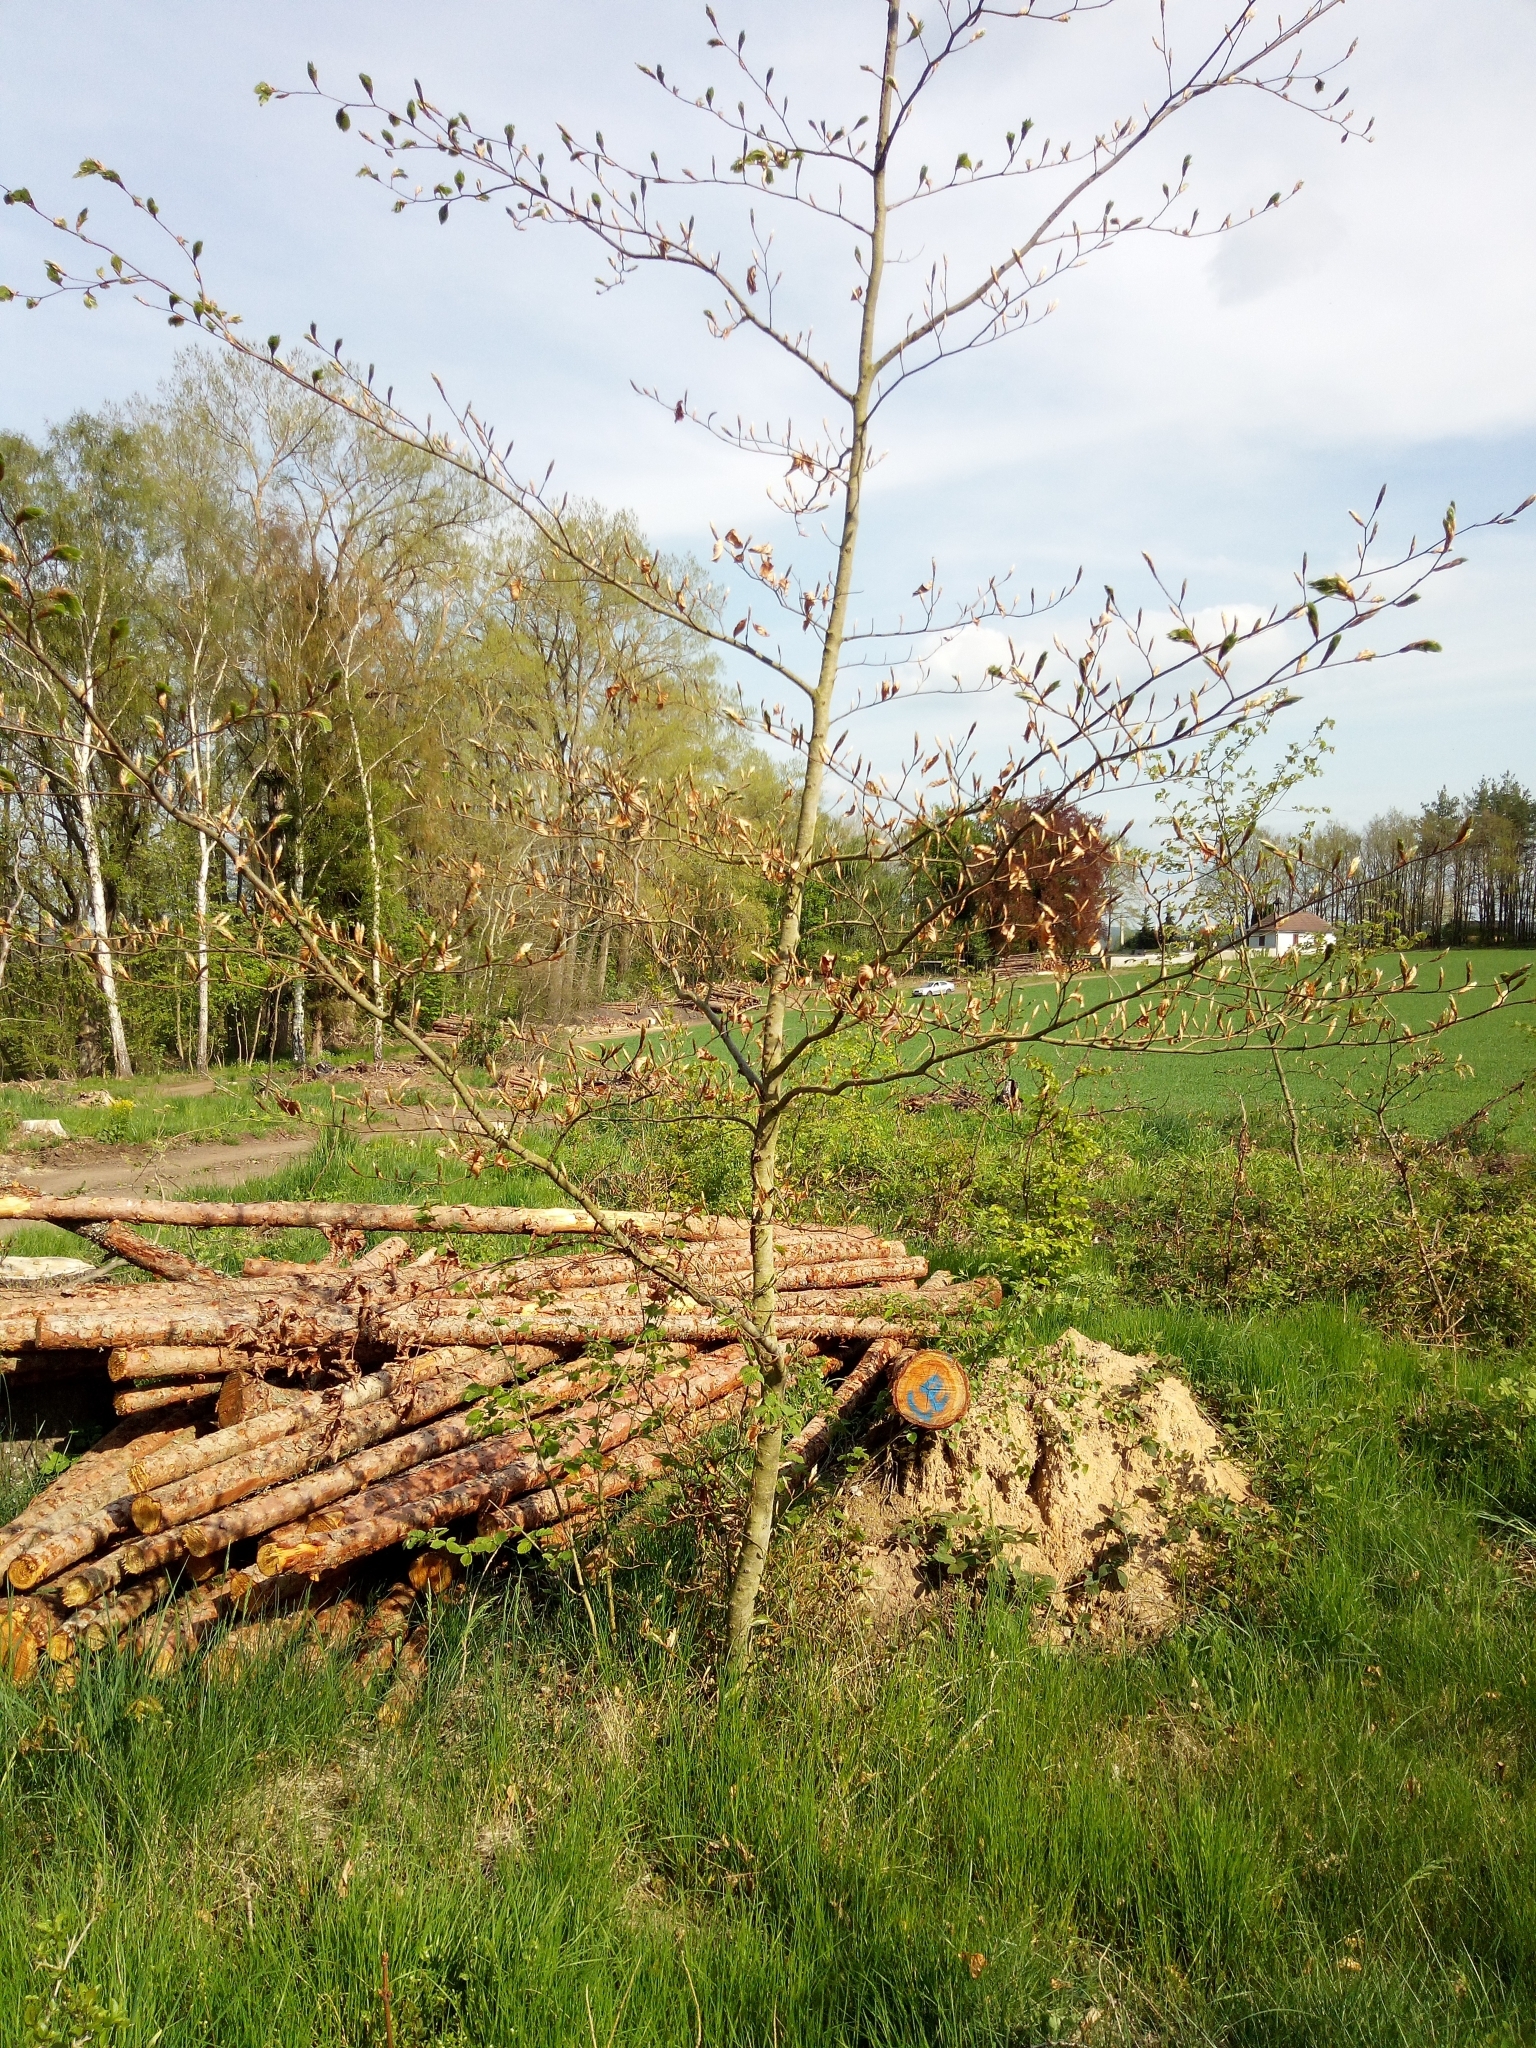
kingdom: Plantae
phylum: Tracheophyta
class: Magnoliopsida
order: Fagales
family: Fagaceae
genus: Fagus
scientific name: Fagus sylvatica
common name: Beech
